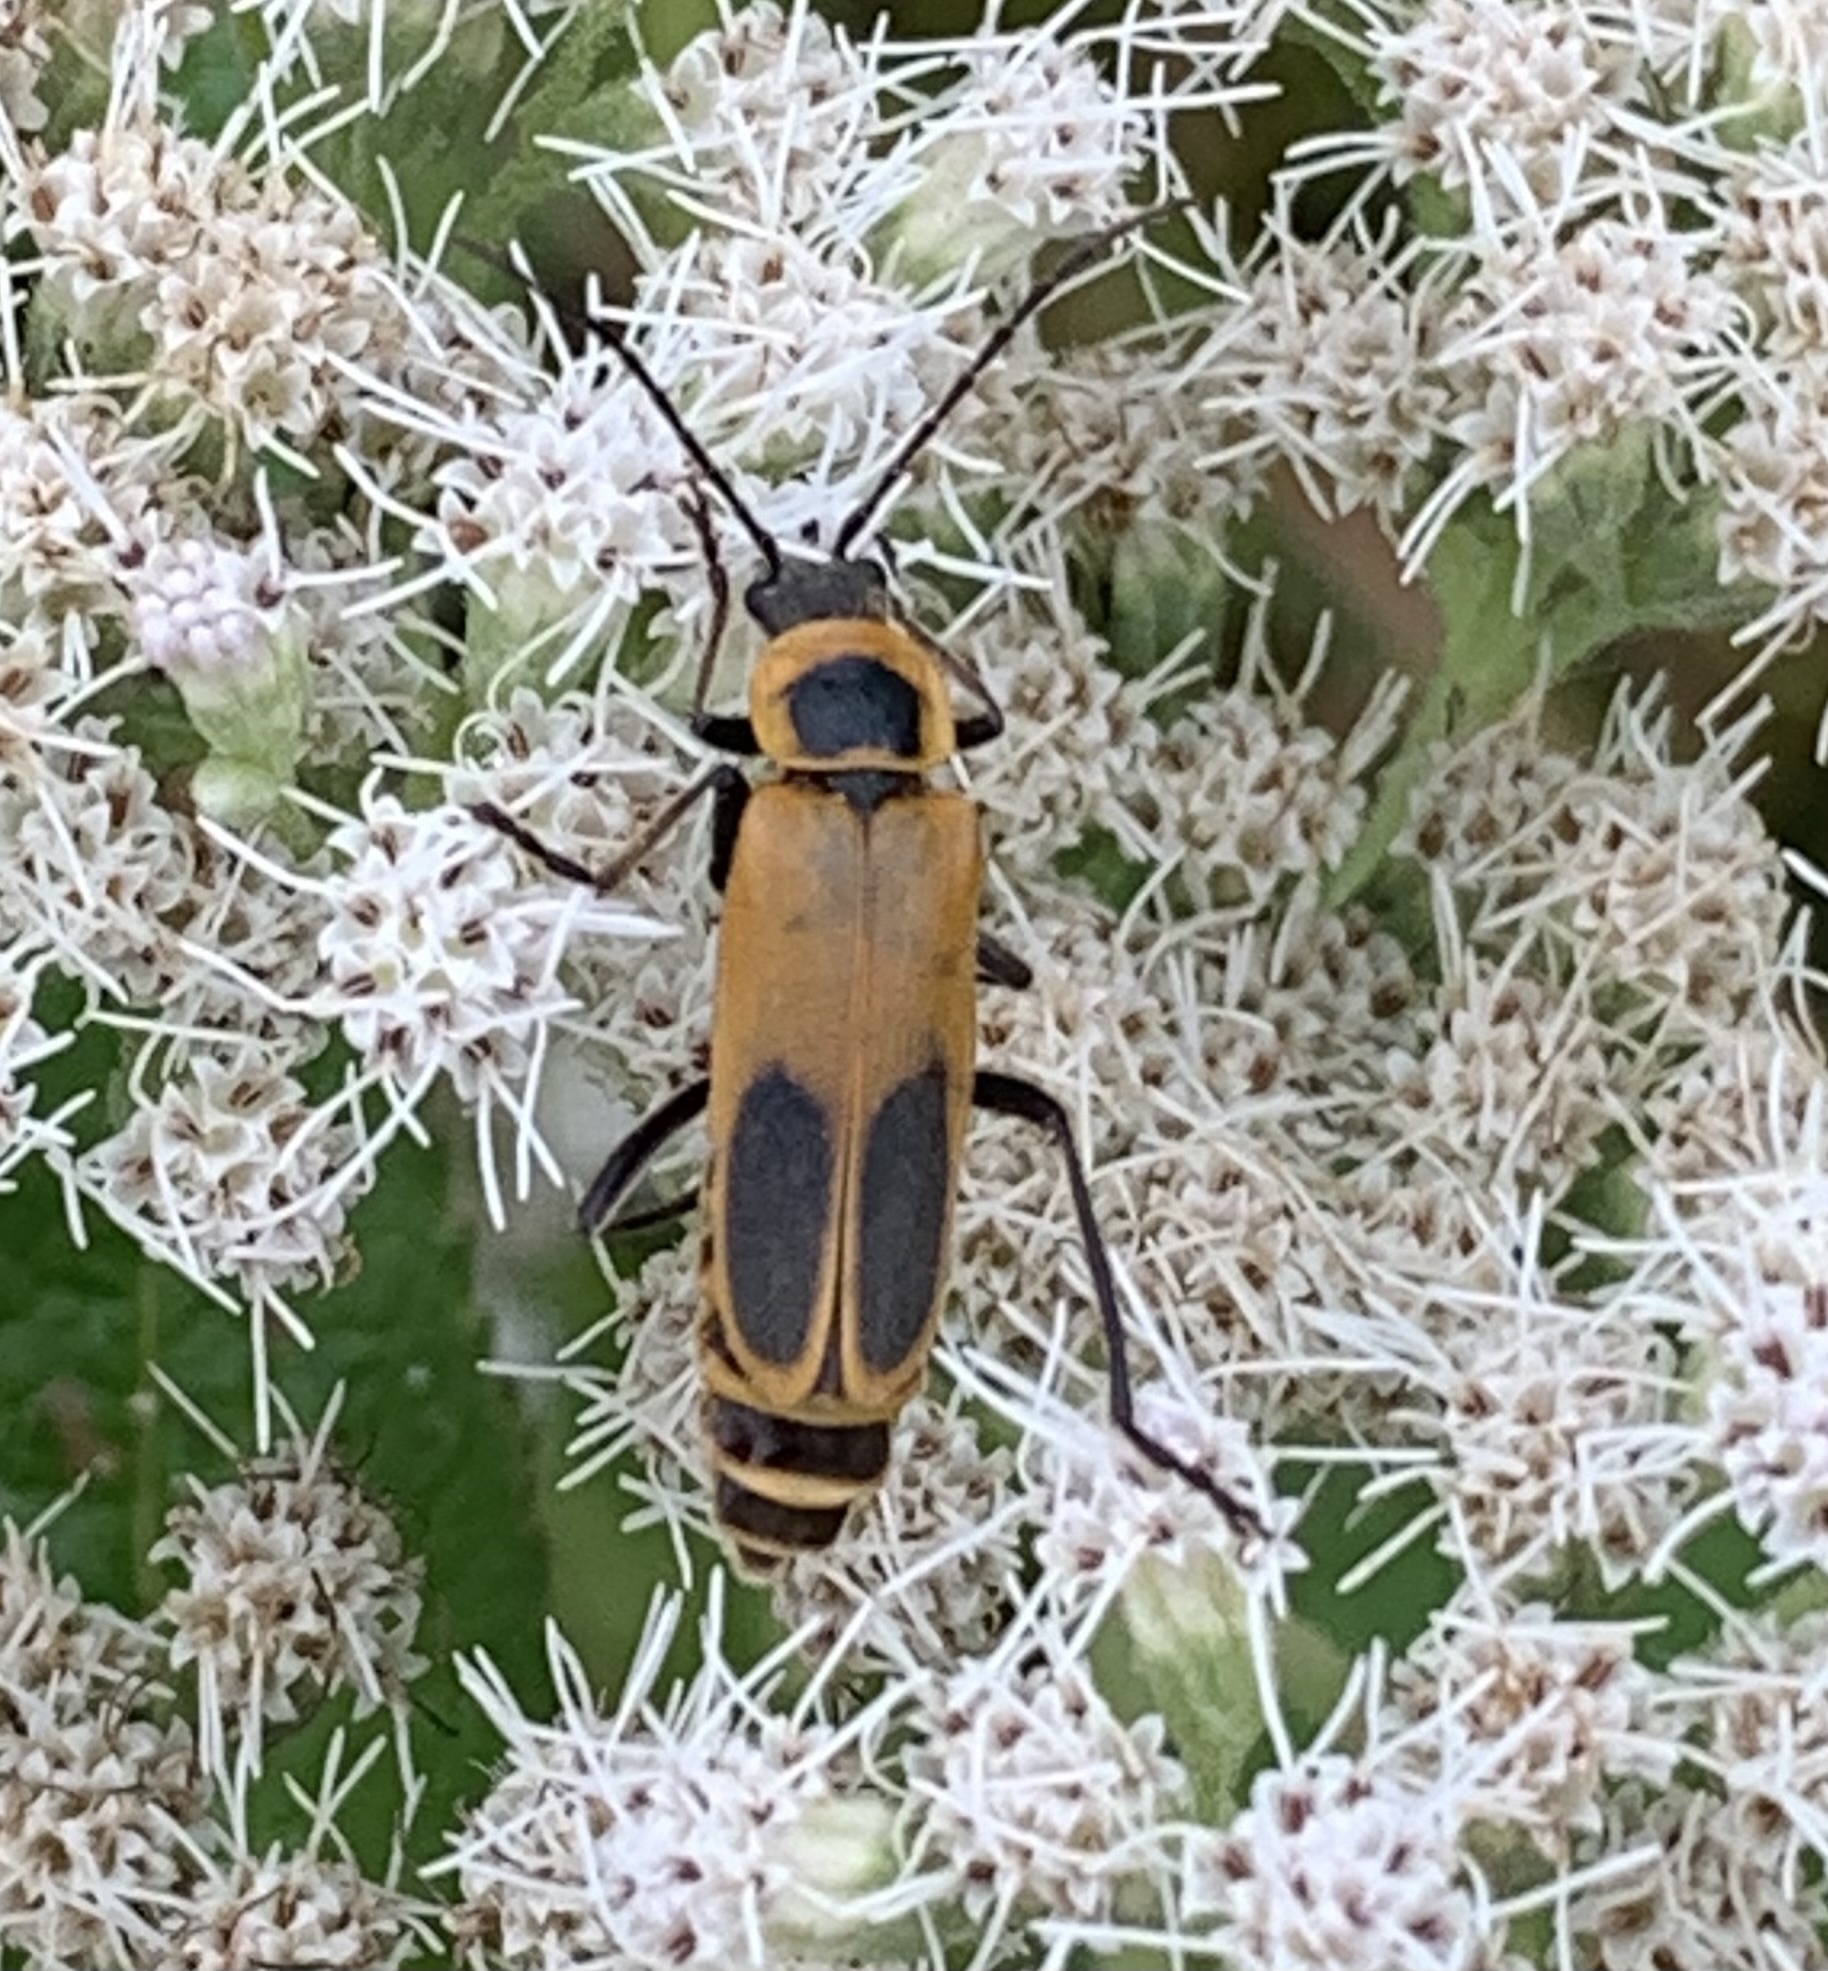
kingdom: Animalia
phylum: Arthropoda
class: Insecta
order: Coleoptera
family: Cantharidae
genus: Chauliognathus
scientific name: Chauliognathus pensylvanicus
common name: Goldenrod soldier beetle
